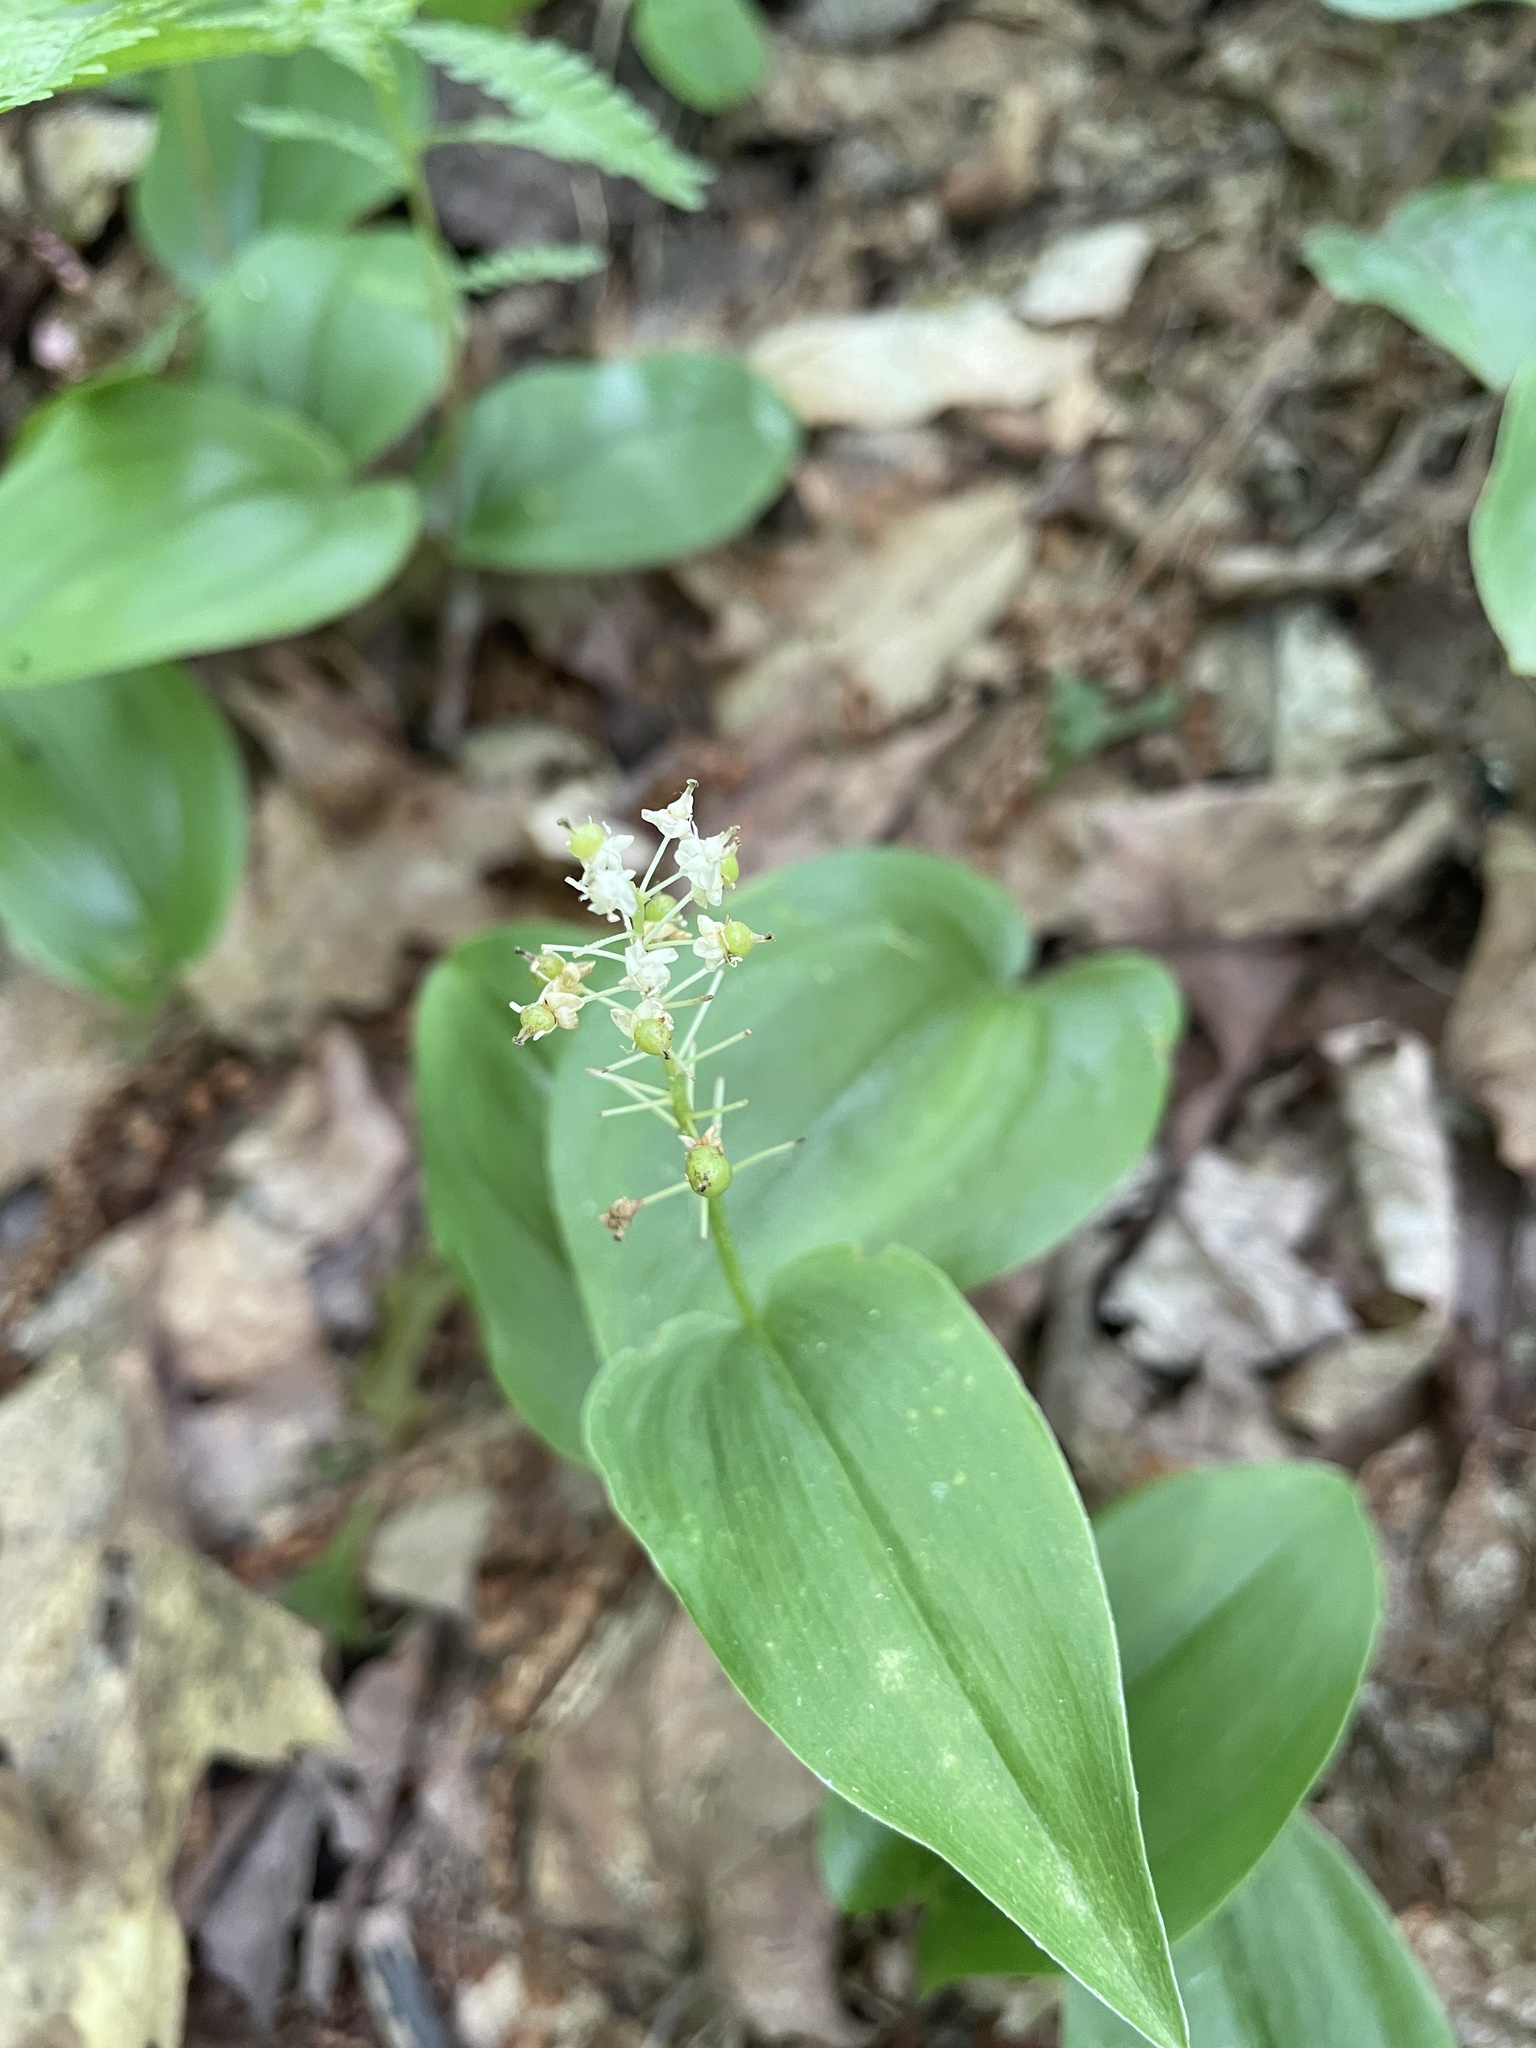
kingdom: Plantae
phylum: Tracheophyta
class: Liliopsida
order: Asparagales
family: Asparagaceae
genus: Maianthemum
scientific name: Maianthemum canadense
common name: False lily-of-the-valley
